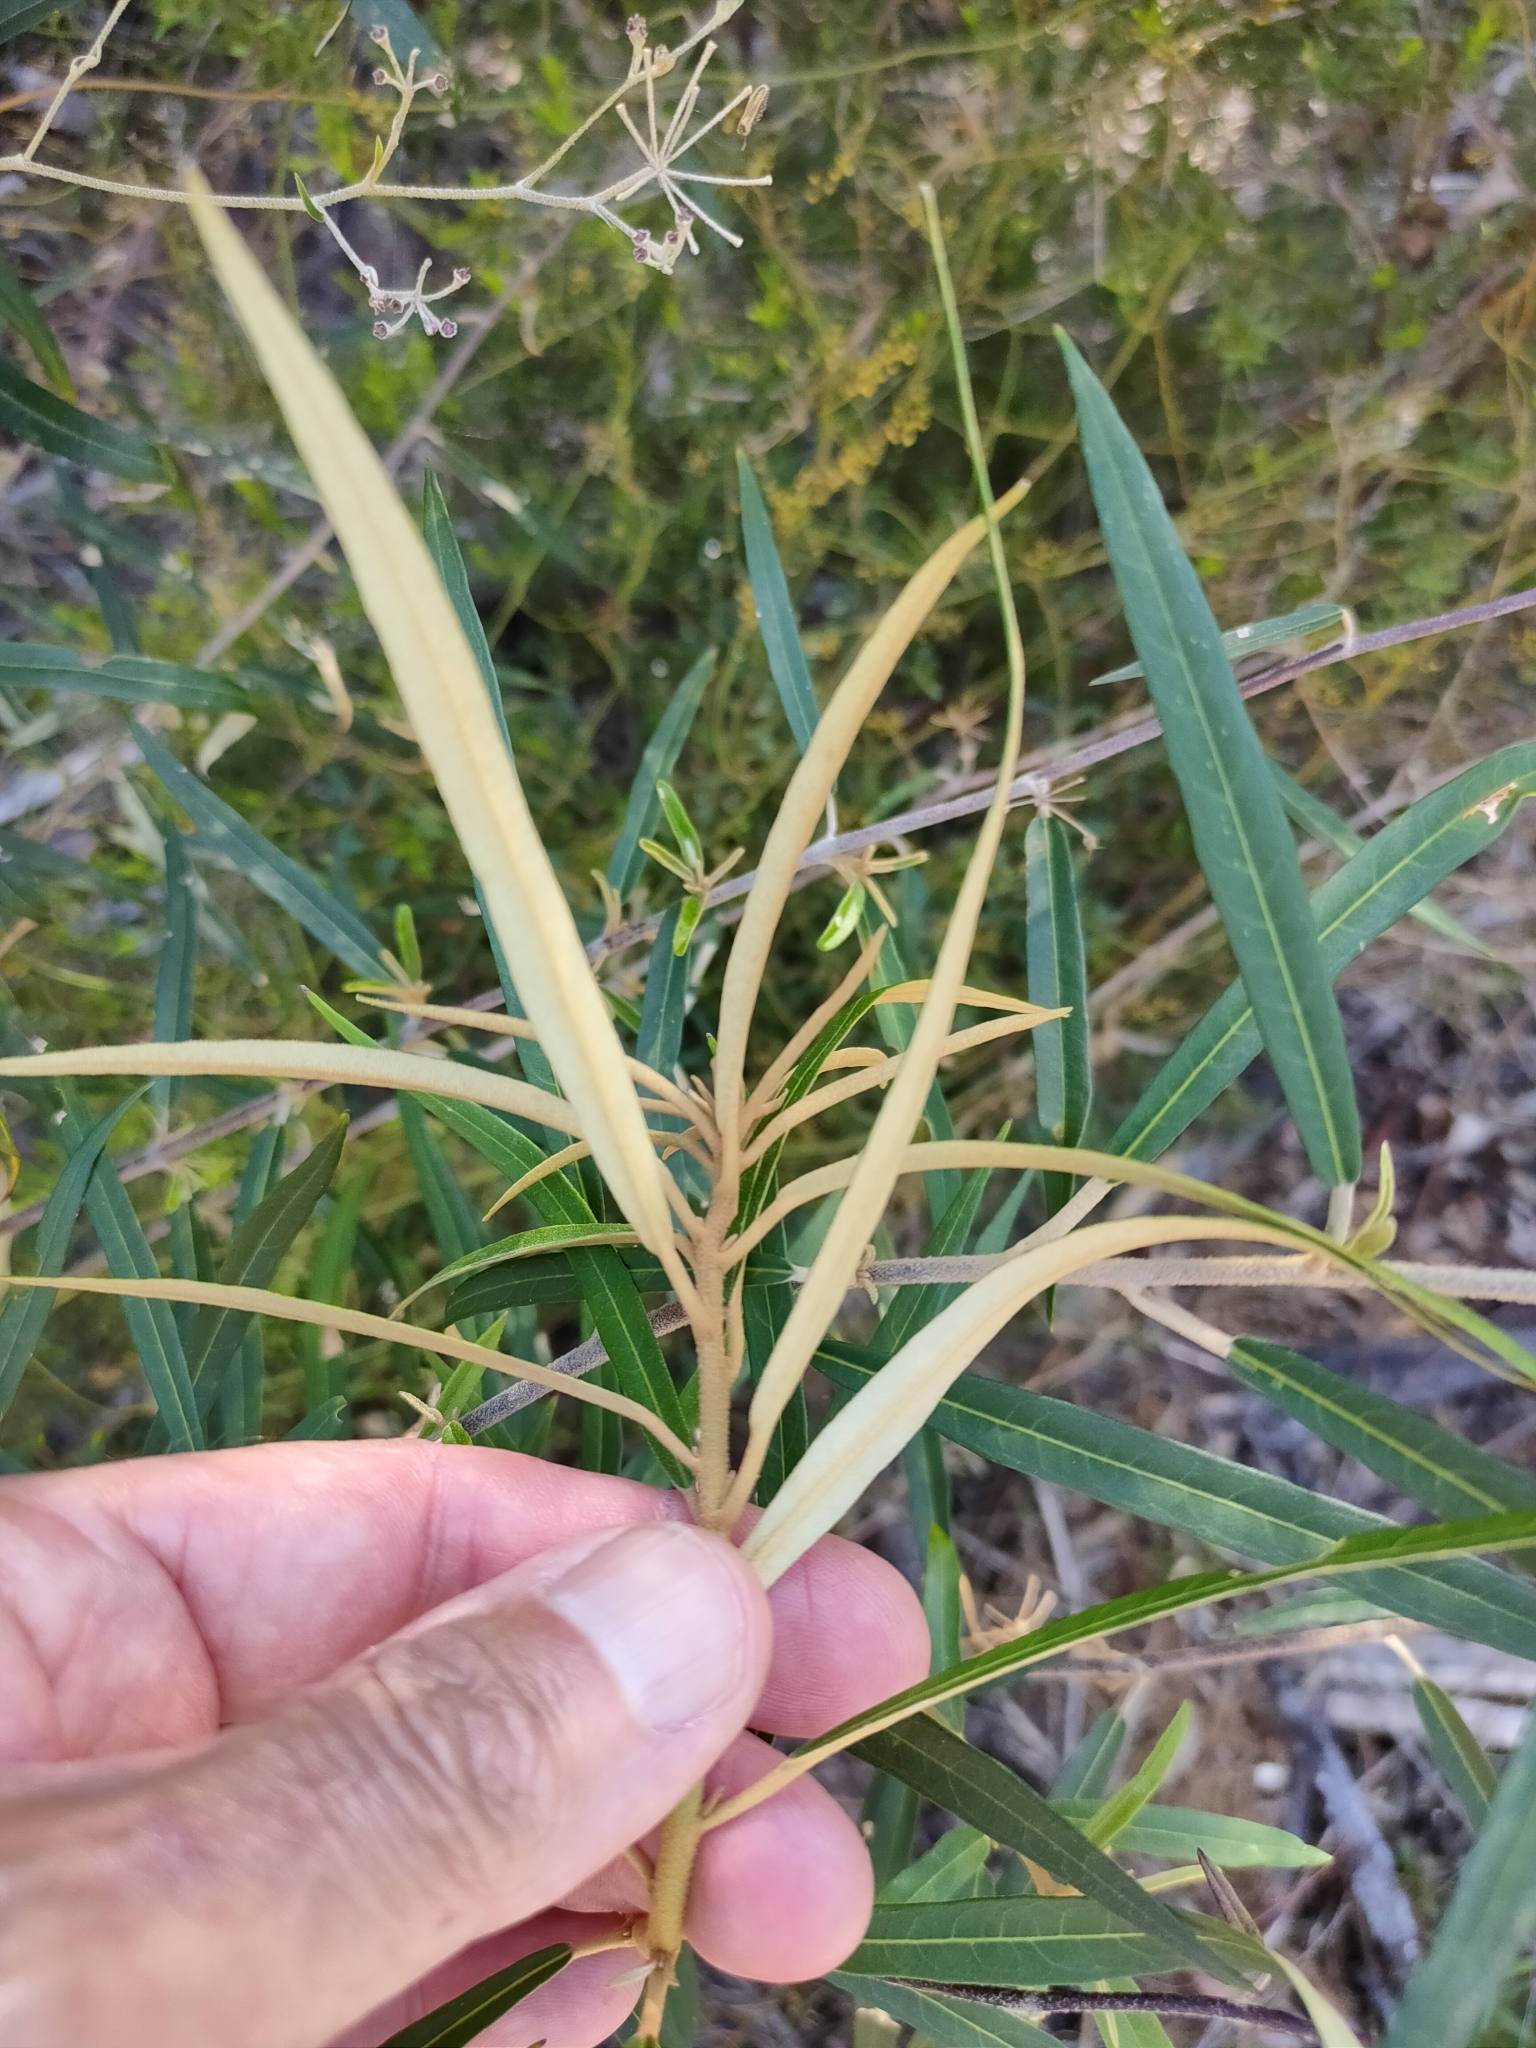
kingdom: Plantae
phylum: Tracheophyta
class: Magnoliopsida
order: Apiales
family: Araliaceae
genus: Astrotricha
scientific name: Astrotricha longifolia
